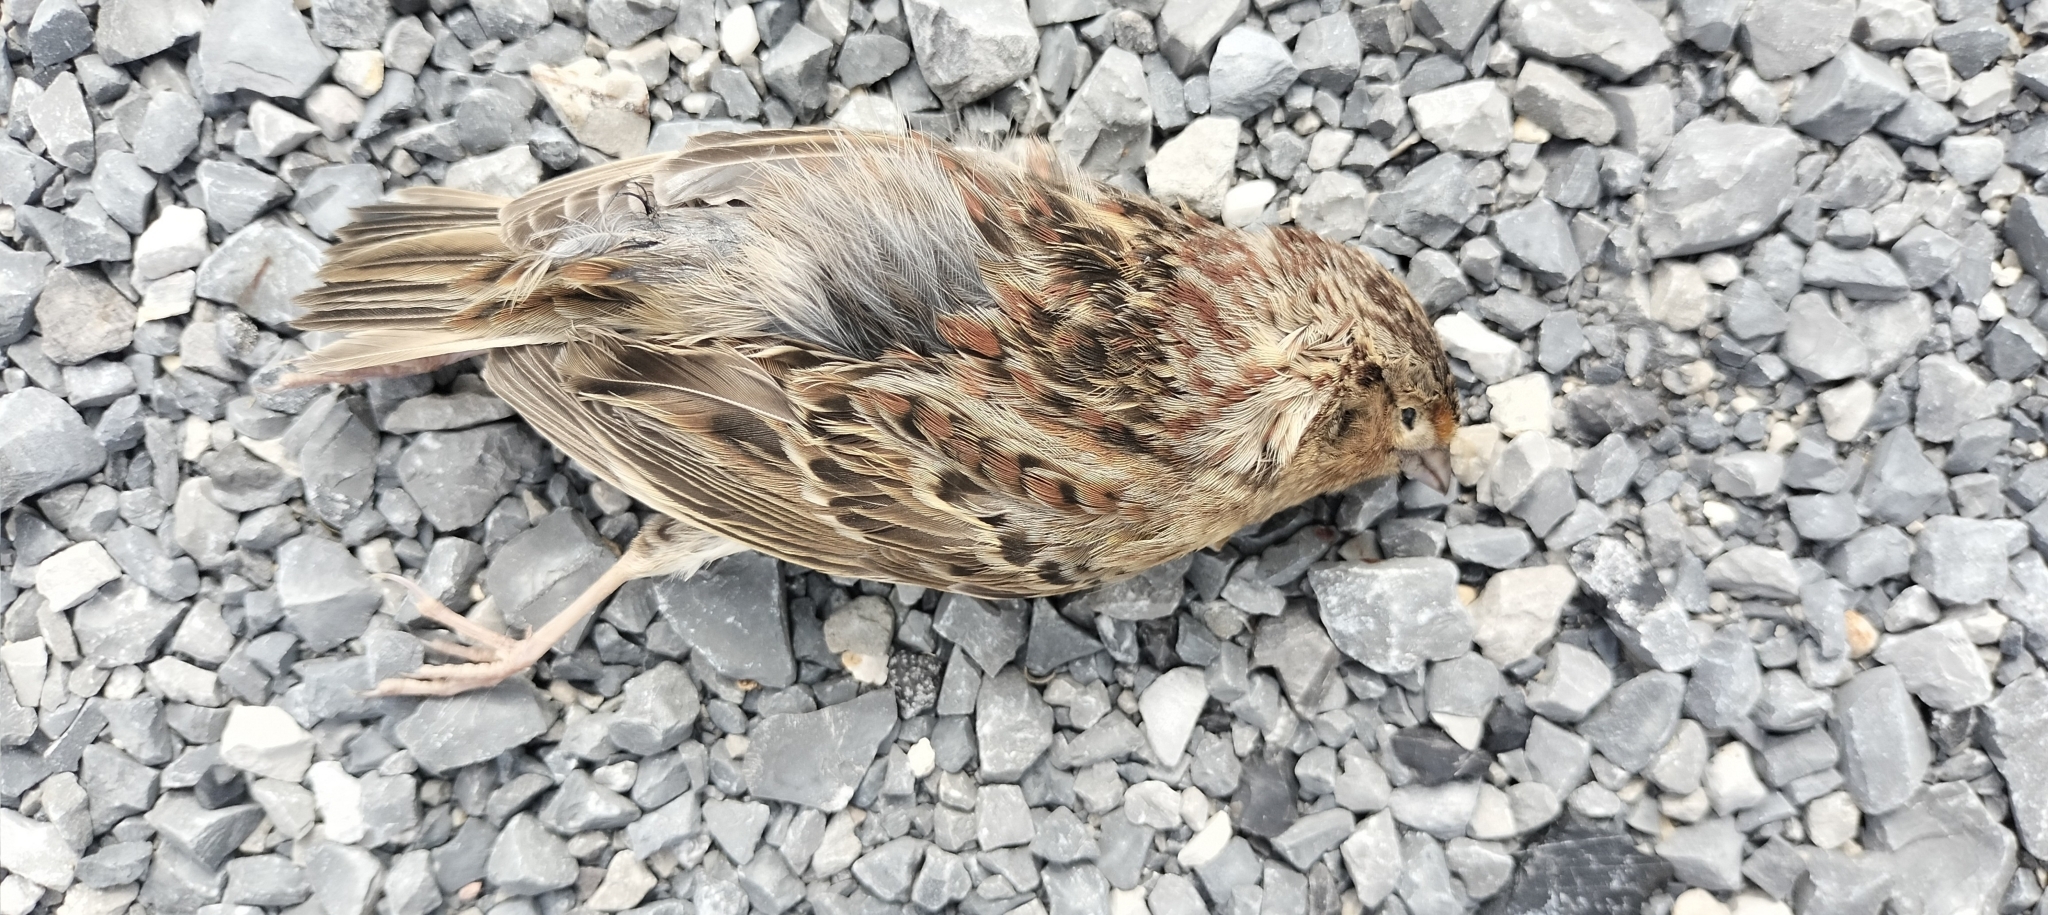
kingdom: Animalia
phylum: Chordata
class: Aves
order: Passeriformes
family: Passerellidae
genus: Ammodramus
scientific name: Ammodramus savannarum
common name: Grasshopper sparrow
